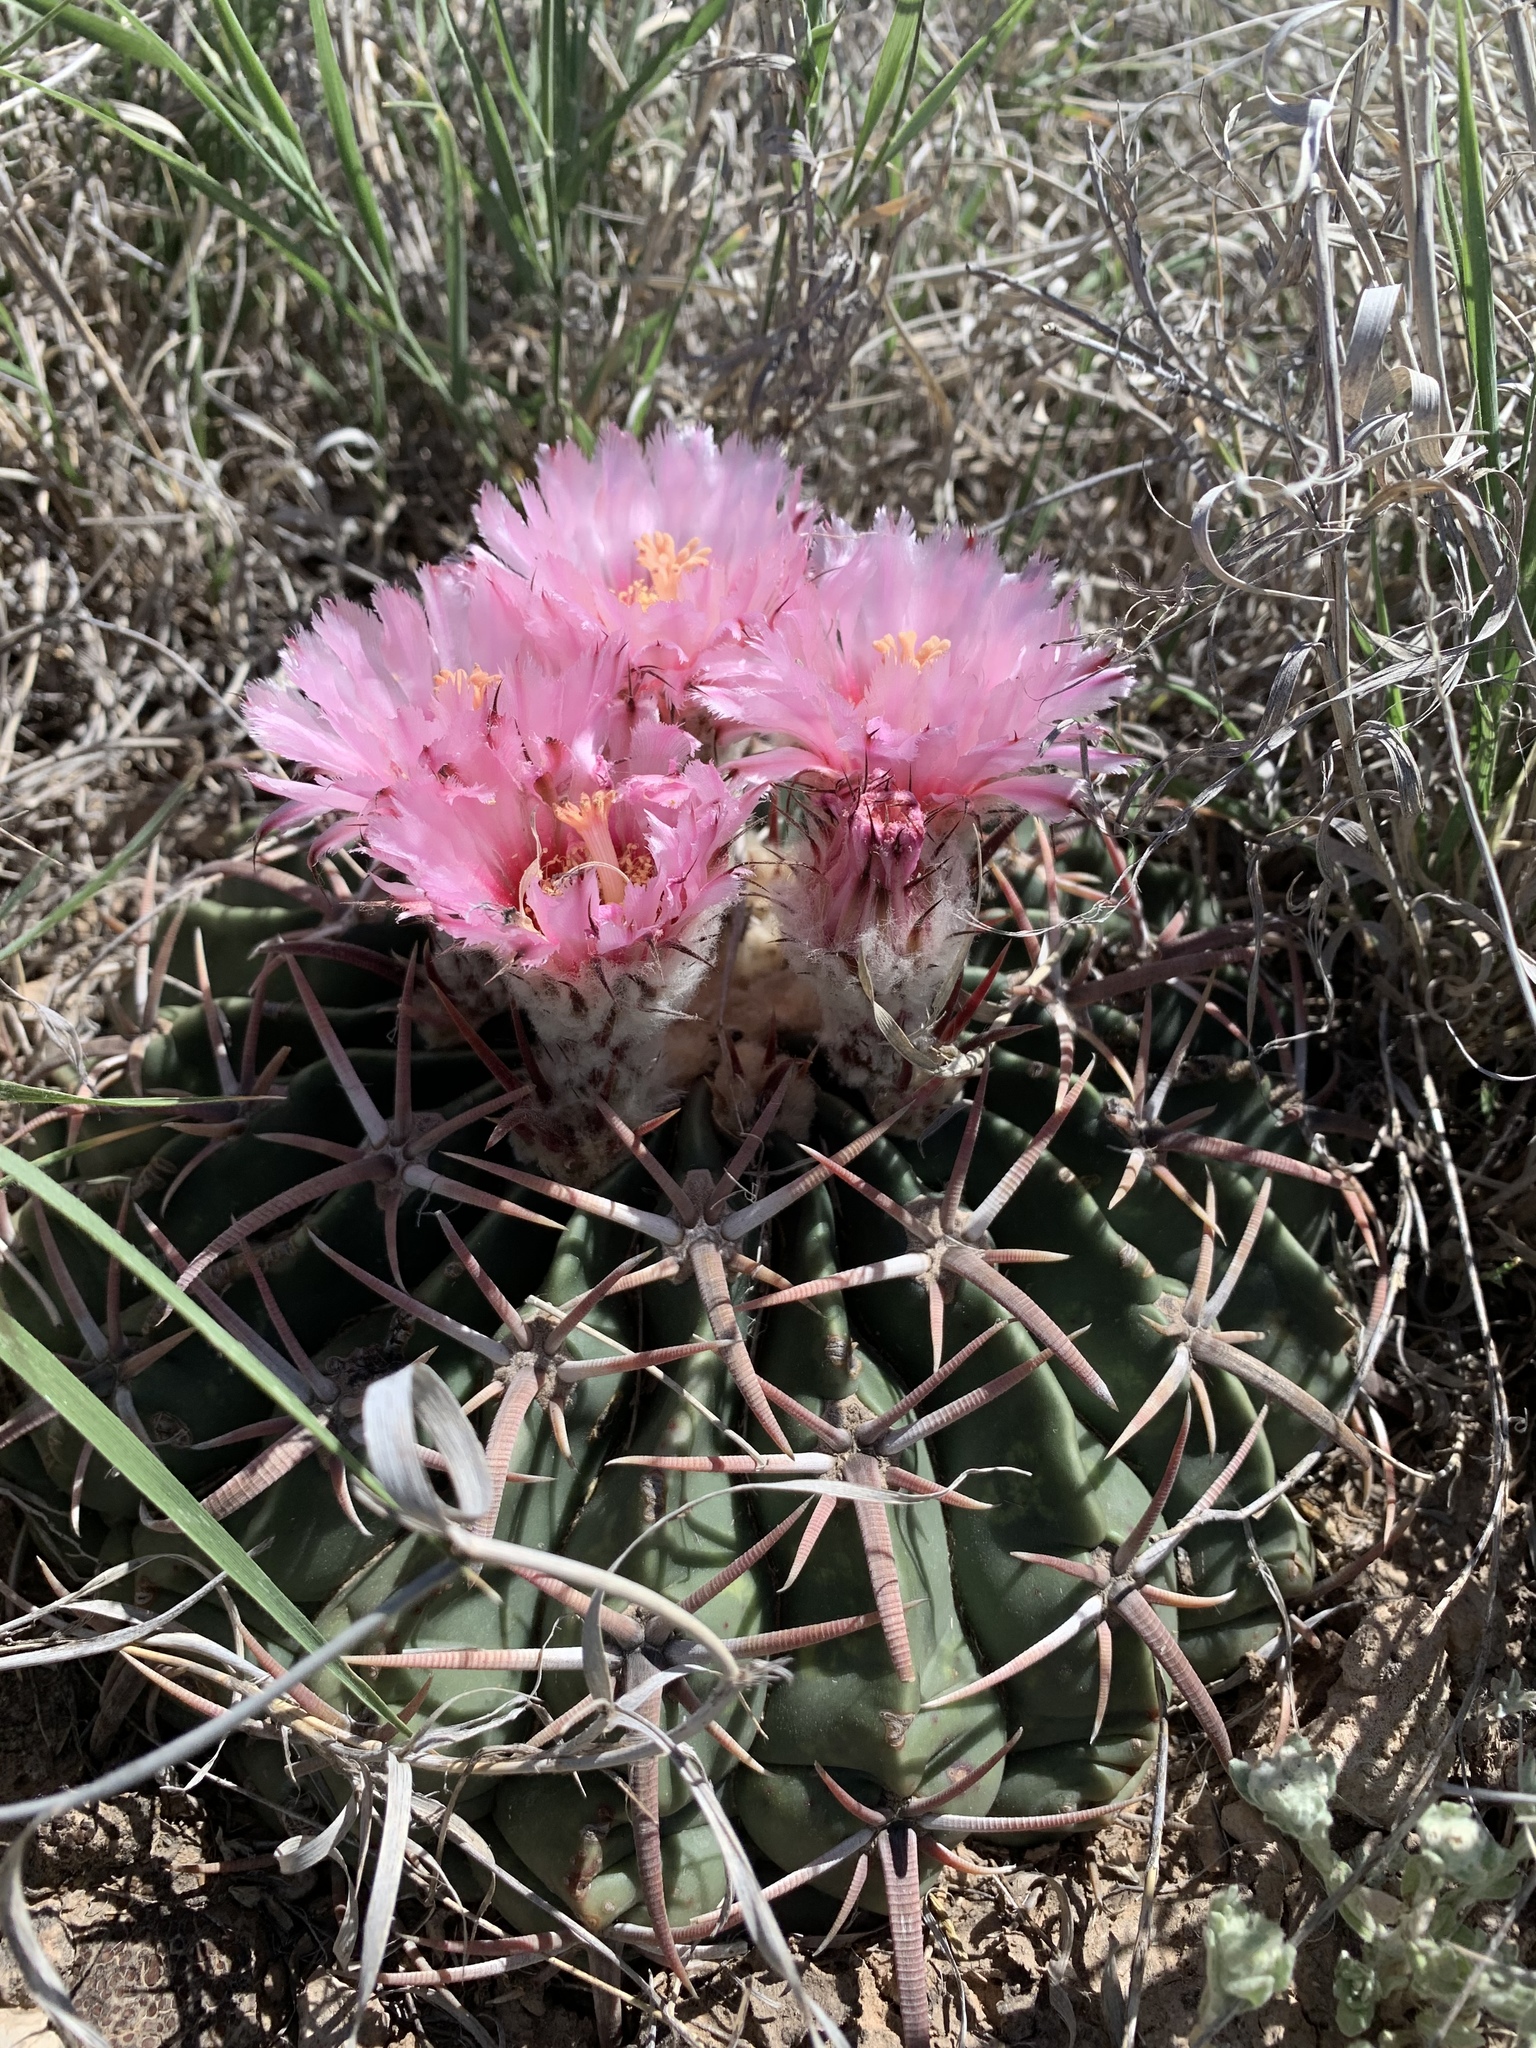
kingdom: Plantae
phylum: Tracheophyta
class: Magnoliopsida
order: Caryophyllales
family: Cactaceae
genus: Echinocactus
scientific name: Echinocactus texensis
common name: Devil's pincushion
